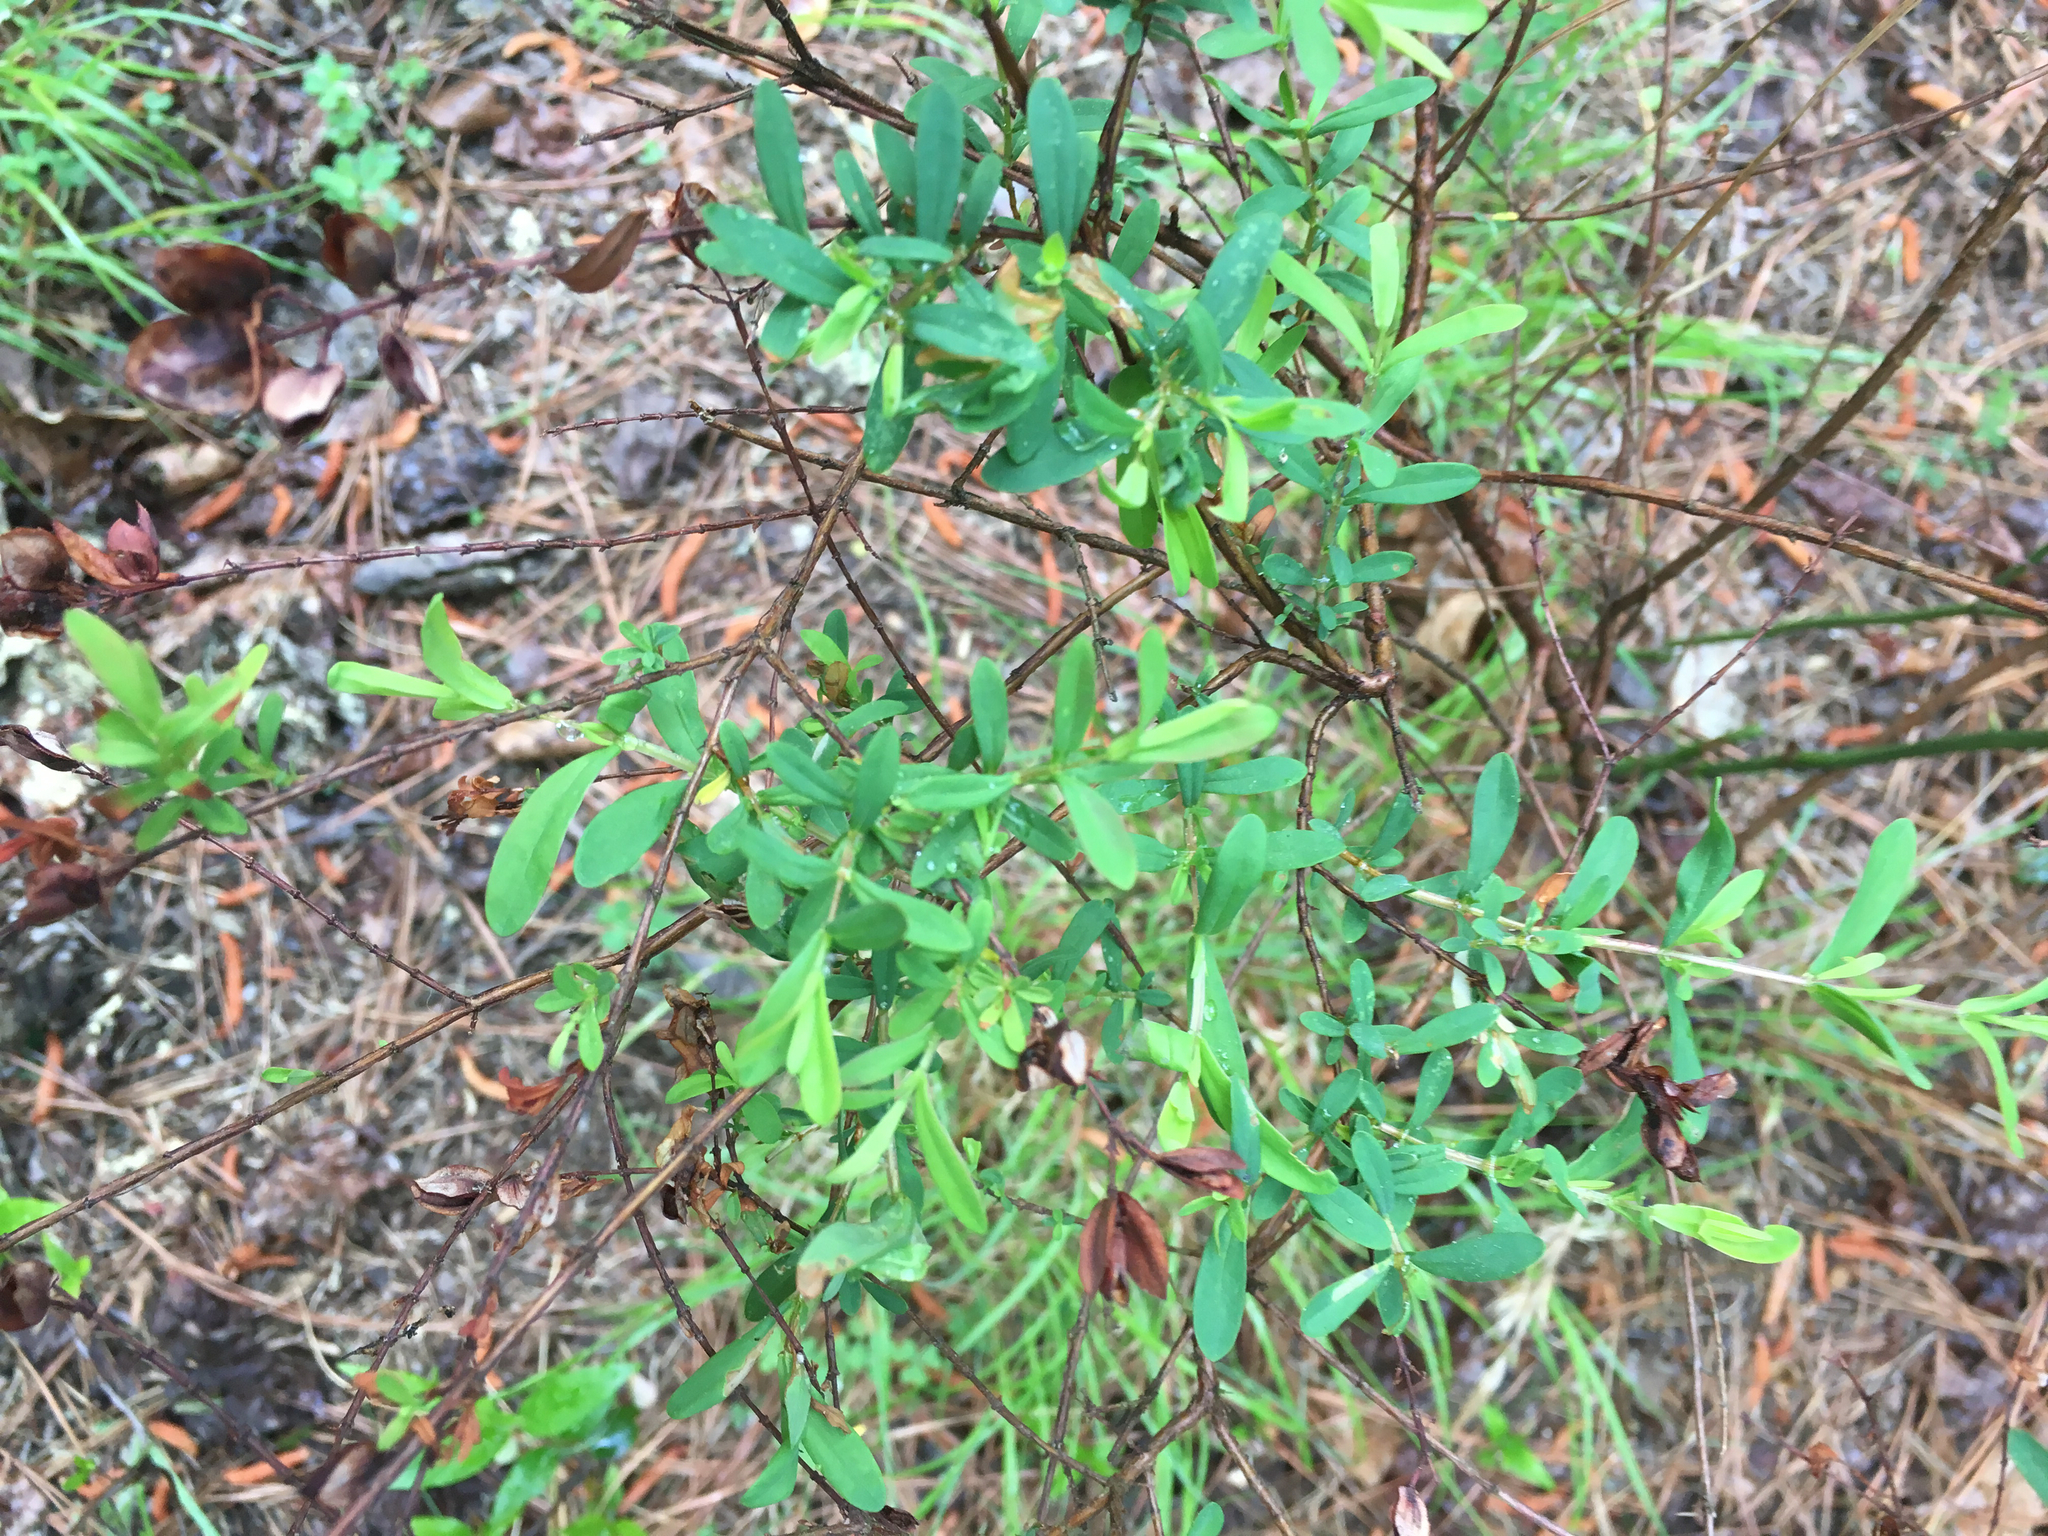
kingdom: Plantae
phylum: Tracheophyta
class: Magnoliopsida
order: Malpighiales
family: Hypericaceae
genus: Hypericum
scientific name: Hypericum hypericoides
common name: St. andrew's cross
